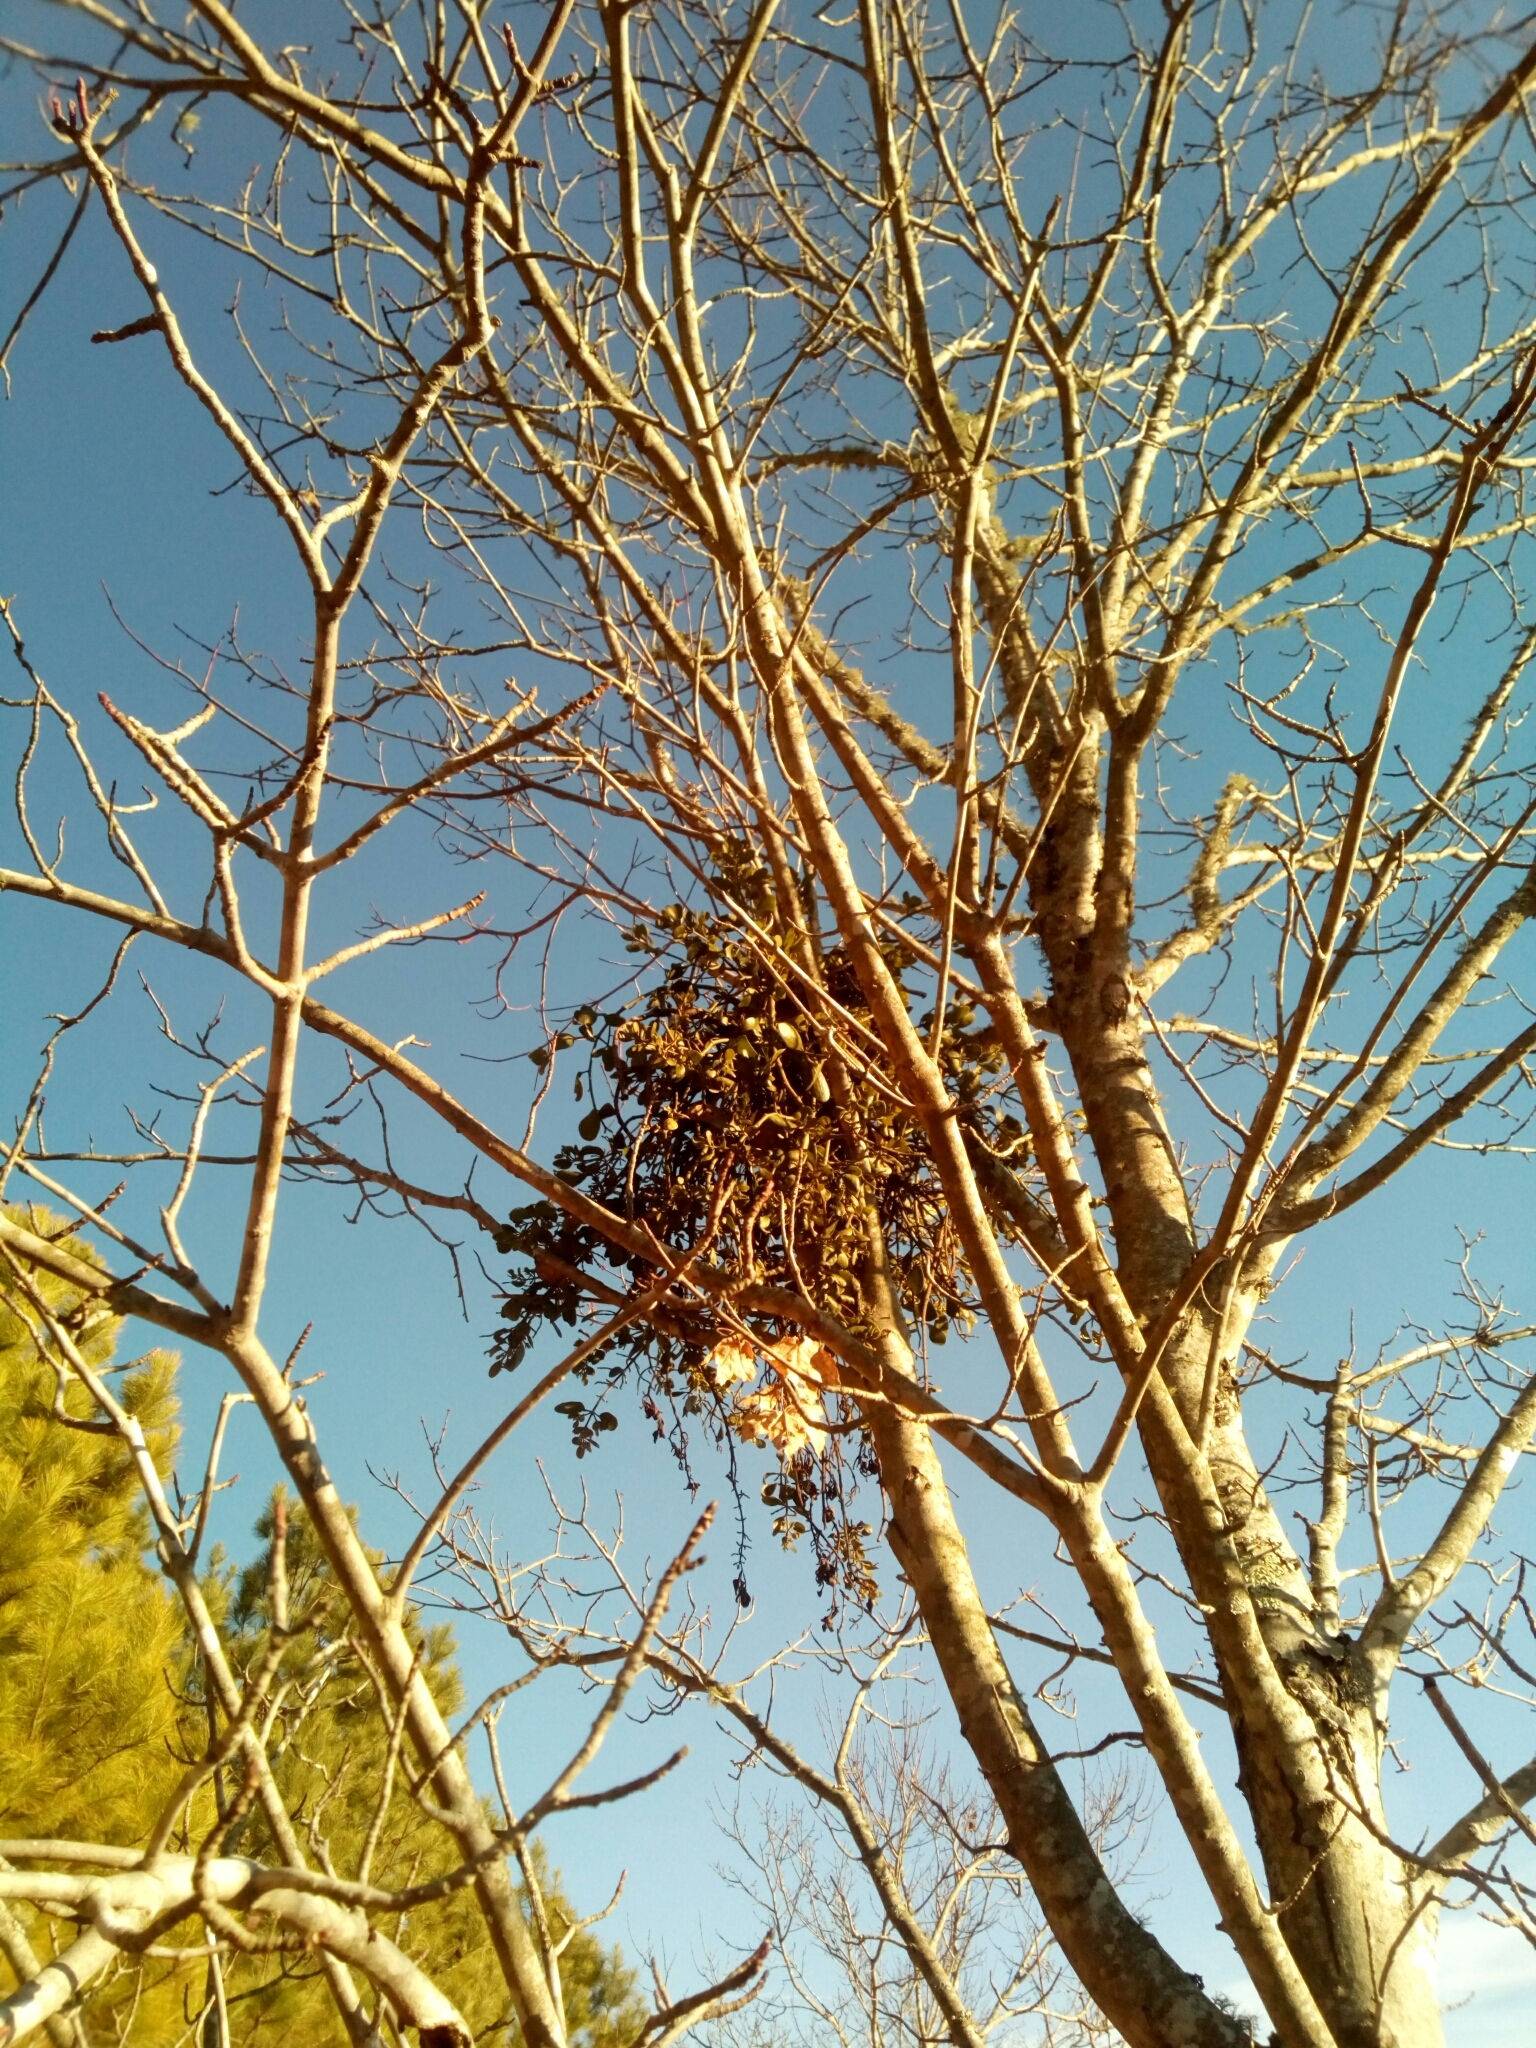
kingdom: Plantae
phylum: Tracheophyta
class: Magnoliopsida
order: Santalales
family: Viscaceae
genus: Phoradendron
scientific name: Phoradendron leucarpum
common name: Pacific mistletoe
